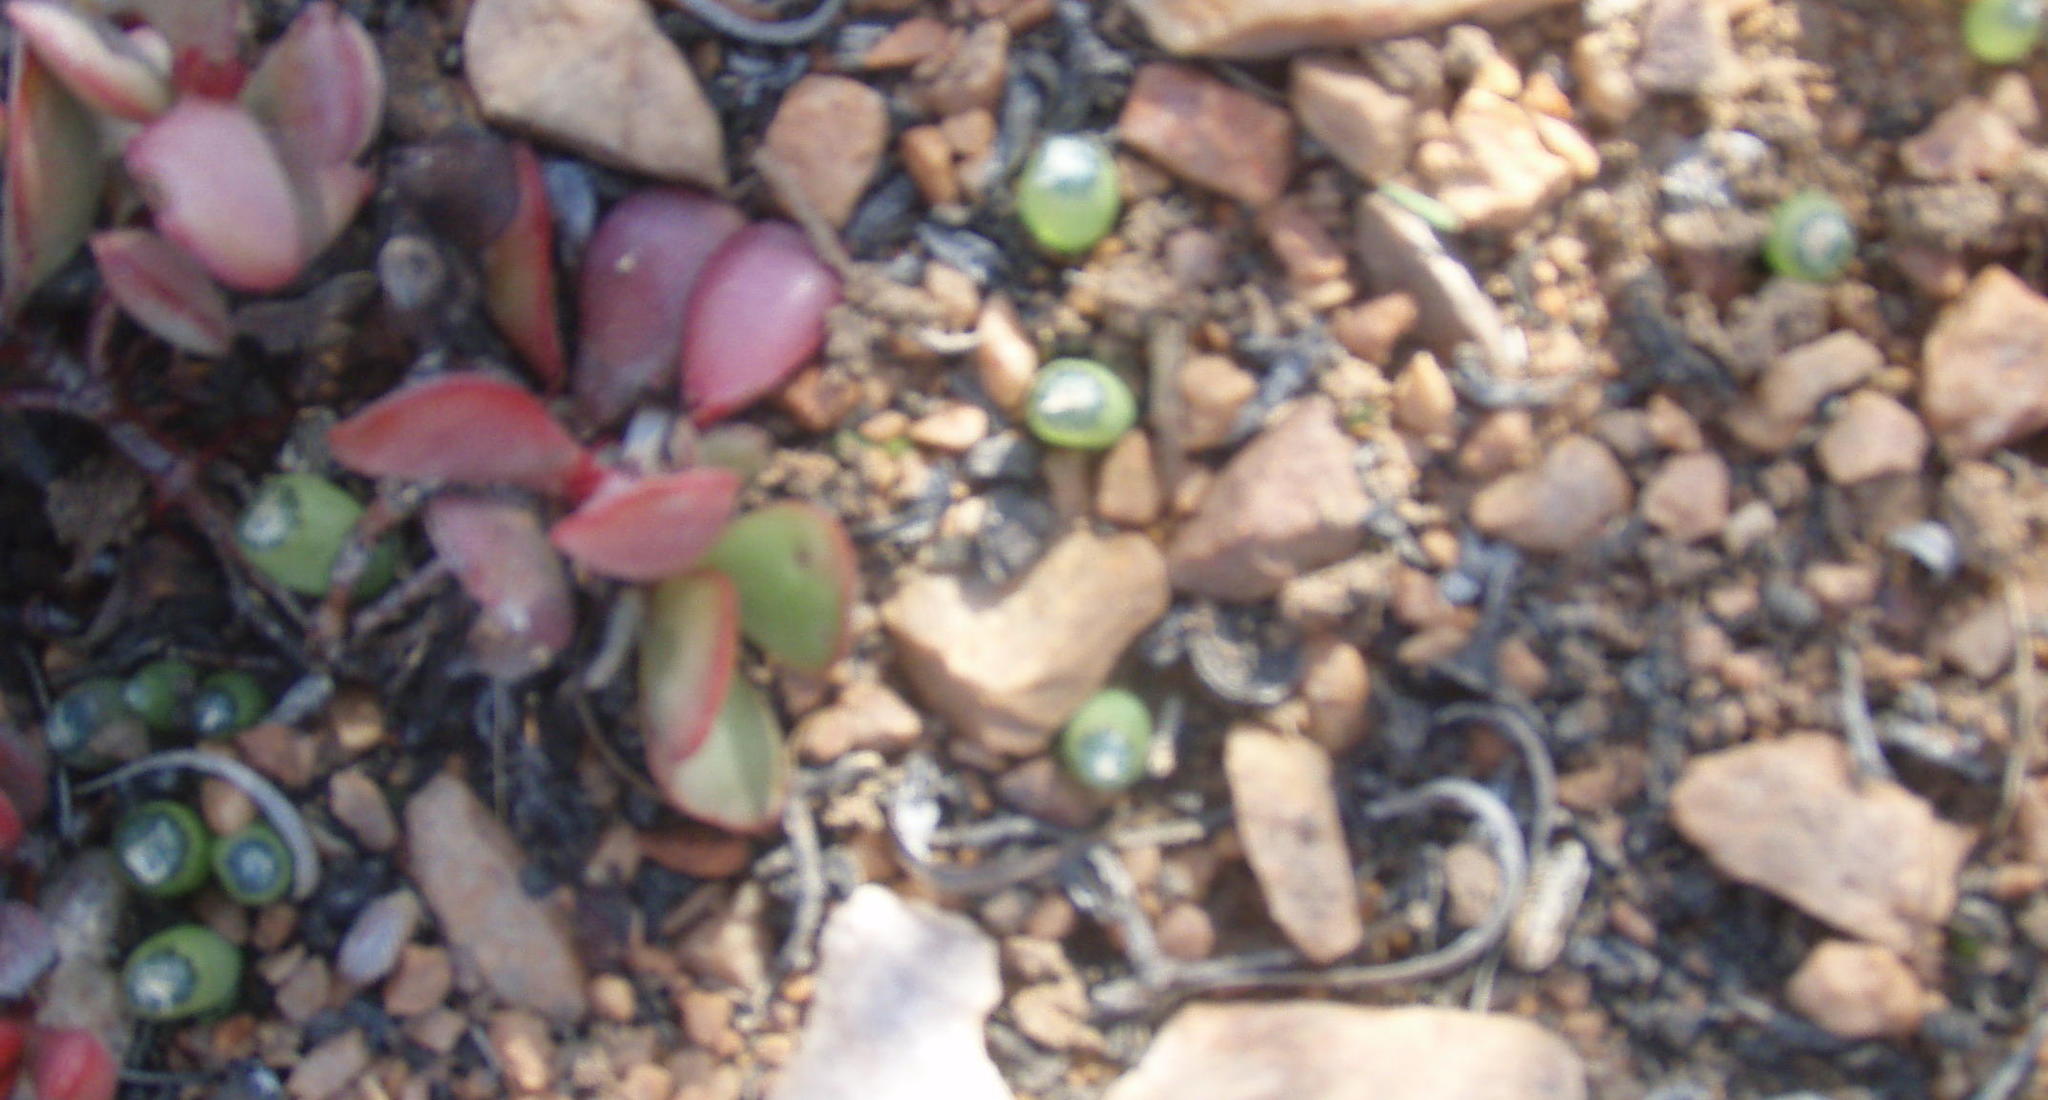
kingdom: Plantae
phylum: Tracheophyta
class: Liliopsida
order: Asparagales
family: Asphodelaceae
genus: Bulbine
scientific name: Bulbine mesembryanthoides
